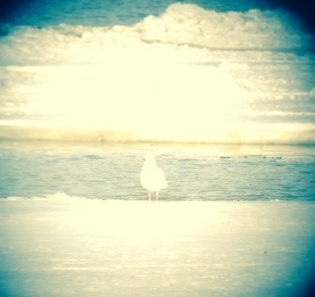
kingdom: Animalia
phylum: Chordata
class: Aves
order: Charadriiformes
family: Laridae
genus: Larus
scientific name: Larus hyperboreus
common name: Glaucous gull
